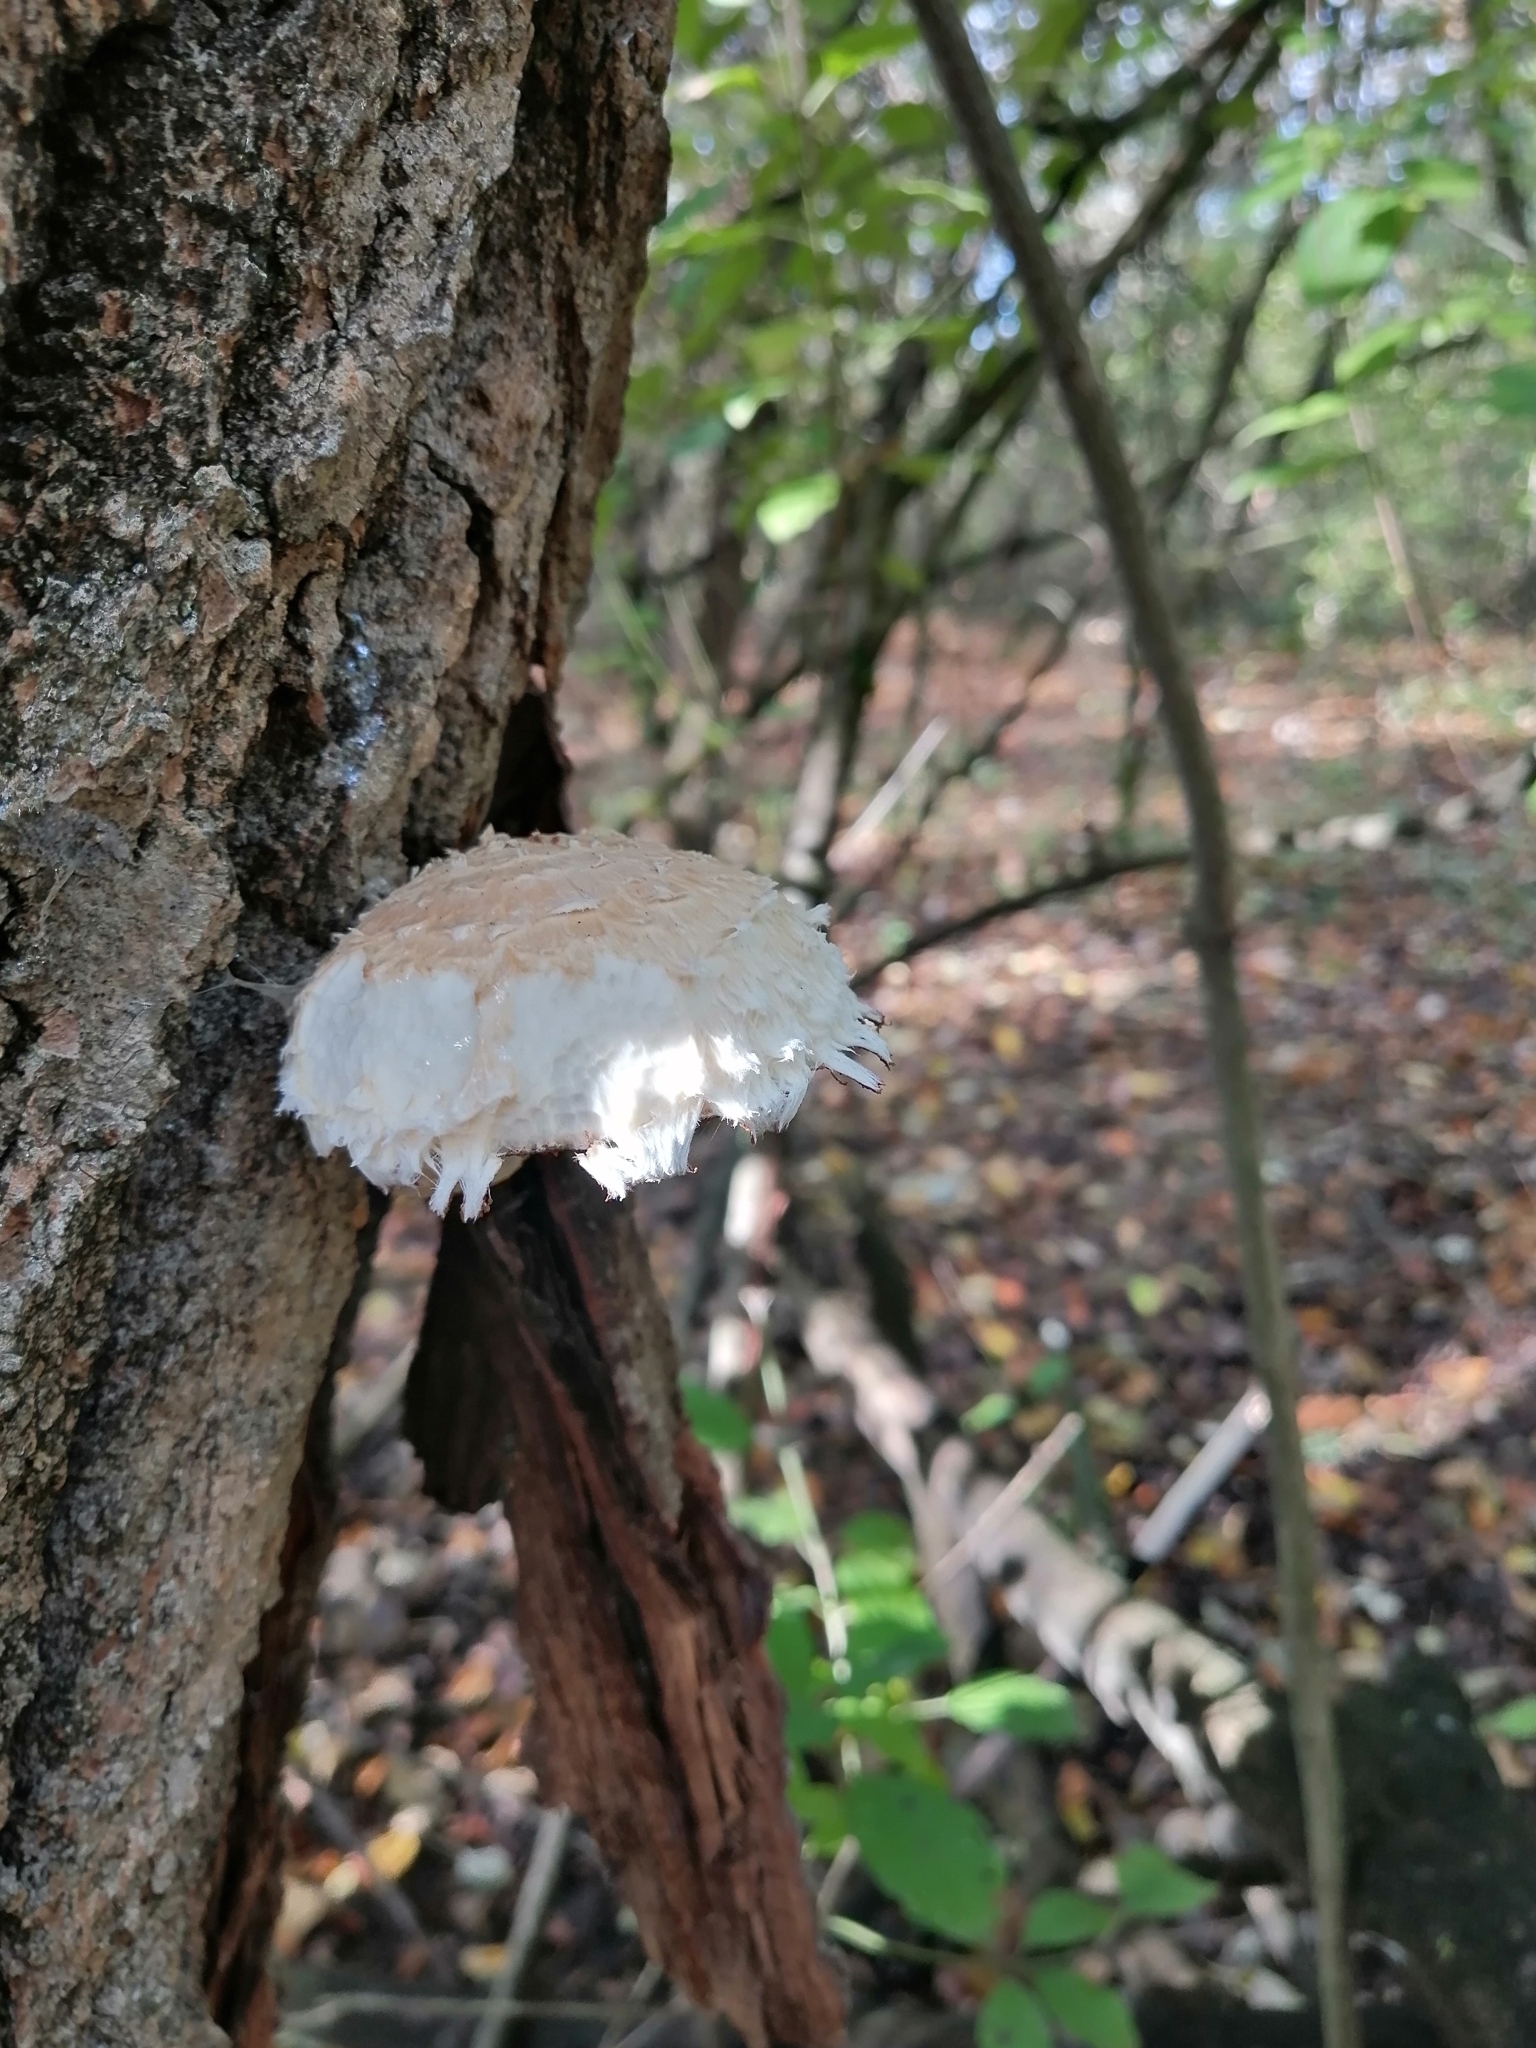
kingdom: Fungi
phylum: Basidiomycota
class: Agaricomycetes
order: Agaricales
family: Strophariaceae
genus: Pholiota
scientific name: Pholiota populnea
